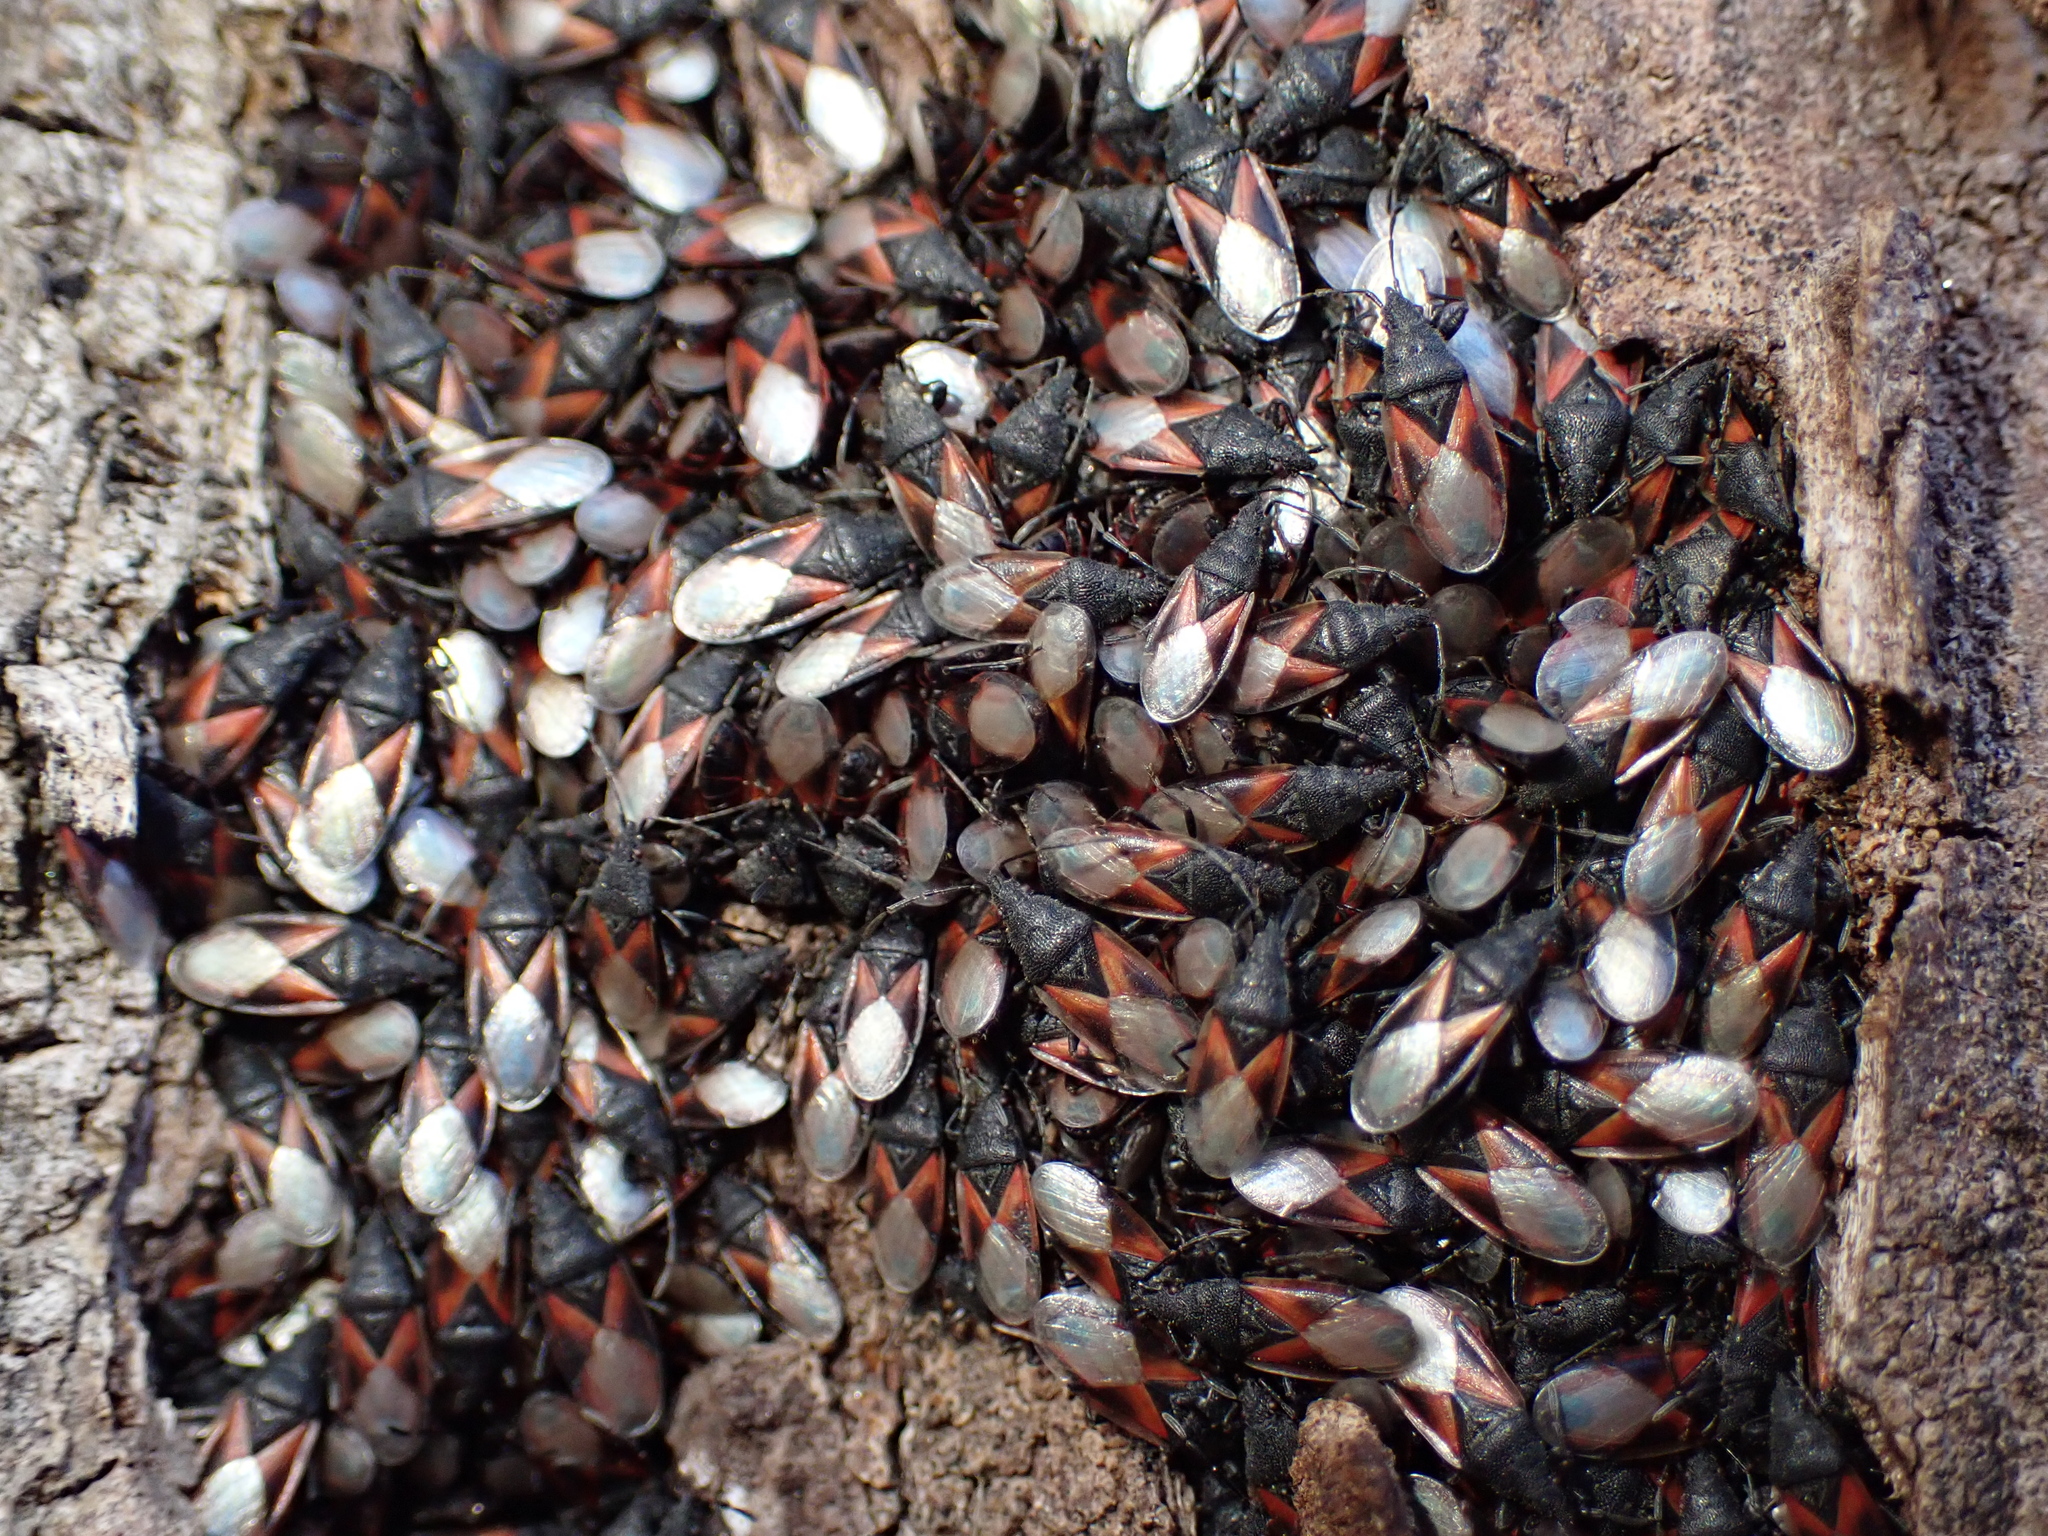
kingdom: Animalia
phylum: Arthropoda
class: Insecta
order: Hemiptera
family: Oxycarenidae
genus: Oxycarenus
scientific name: Oxycarenus lavaterae
